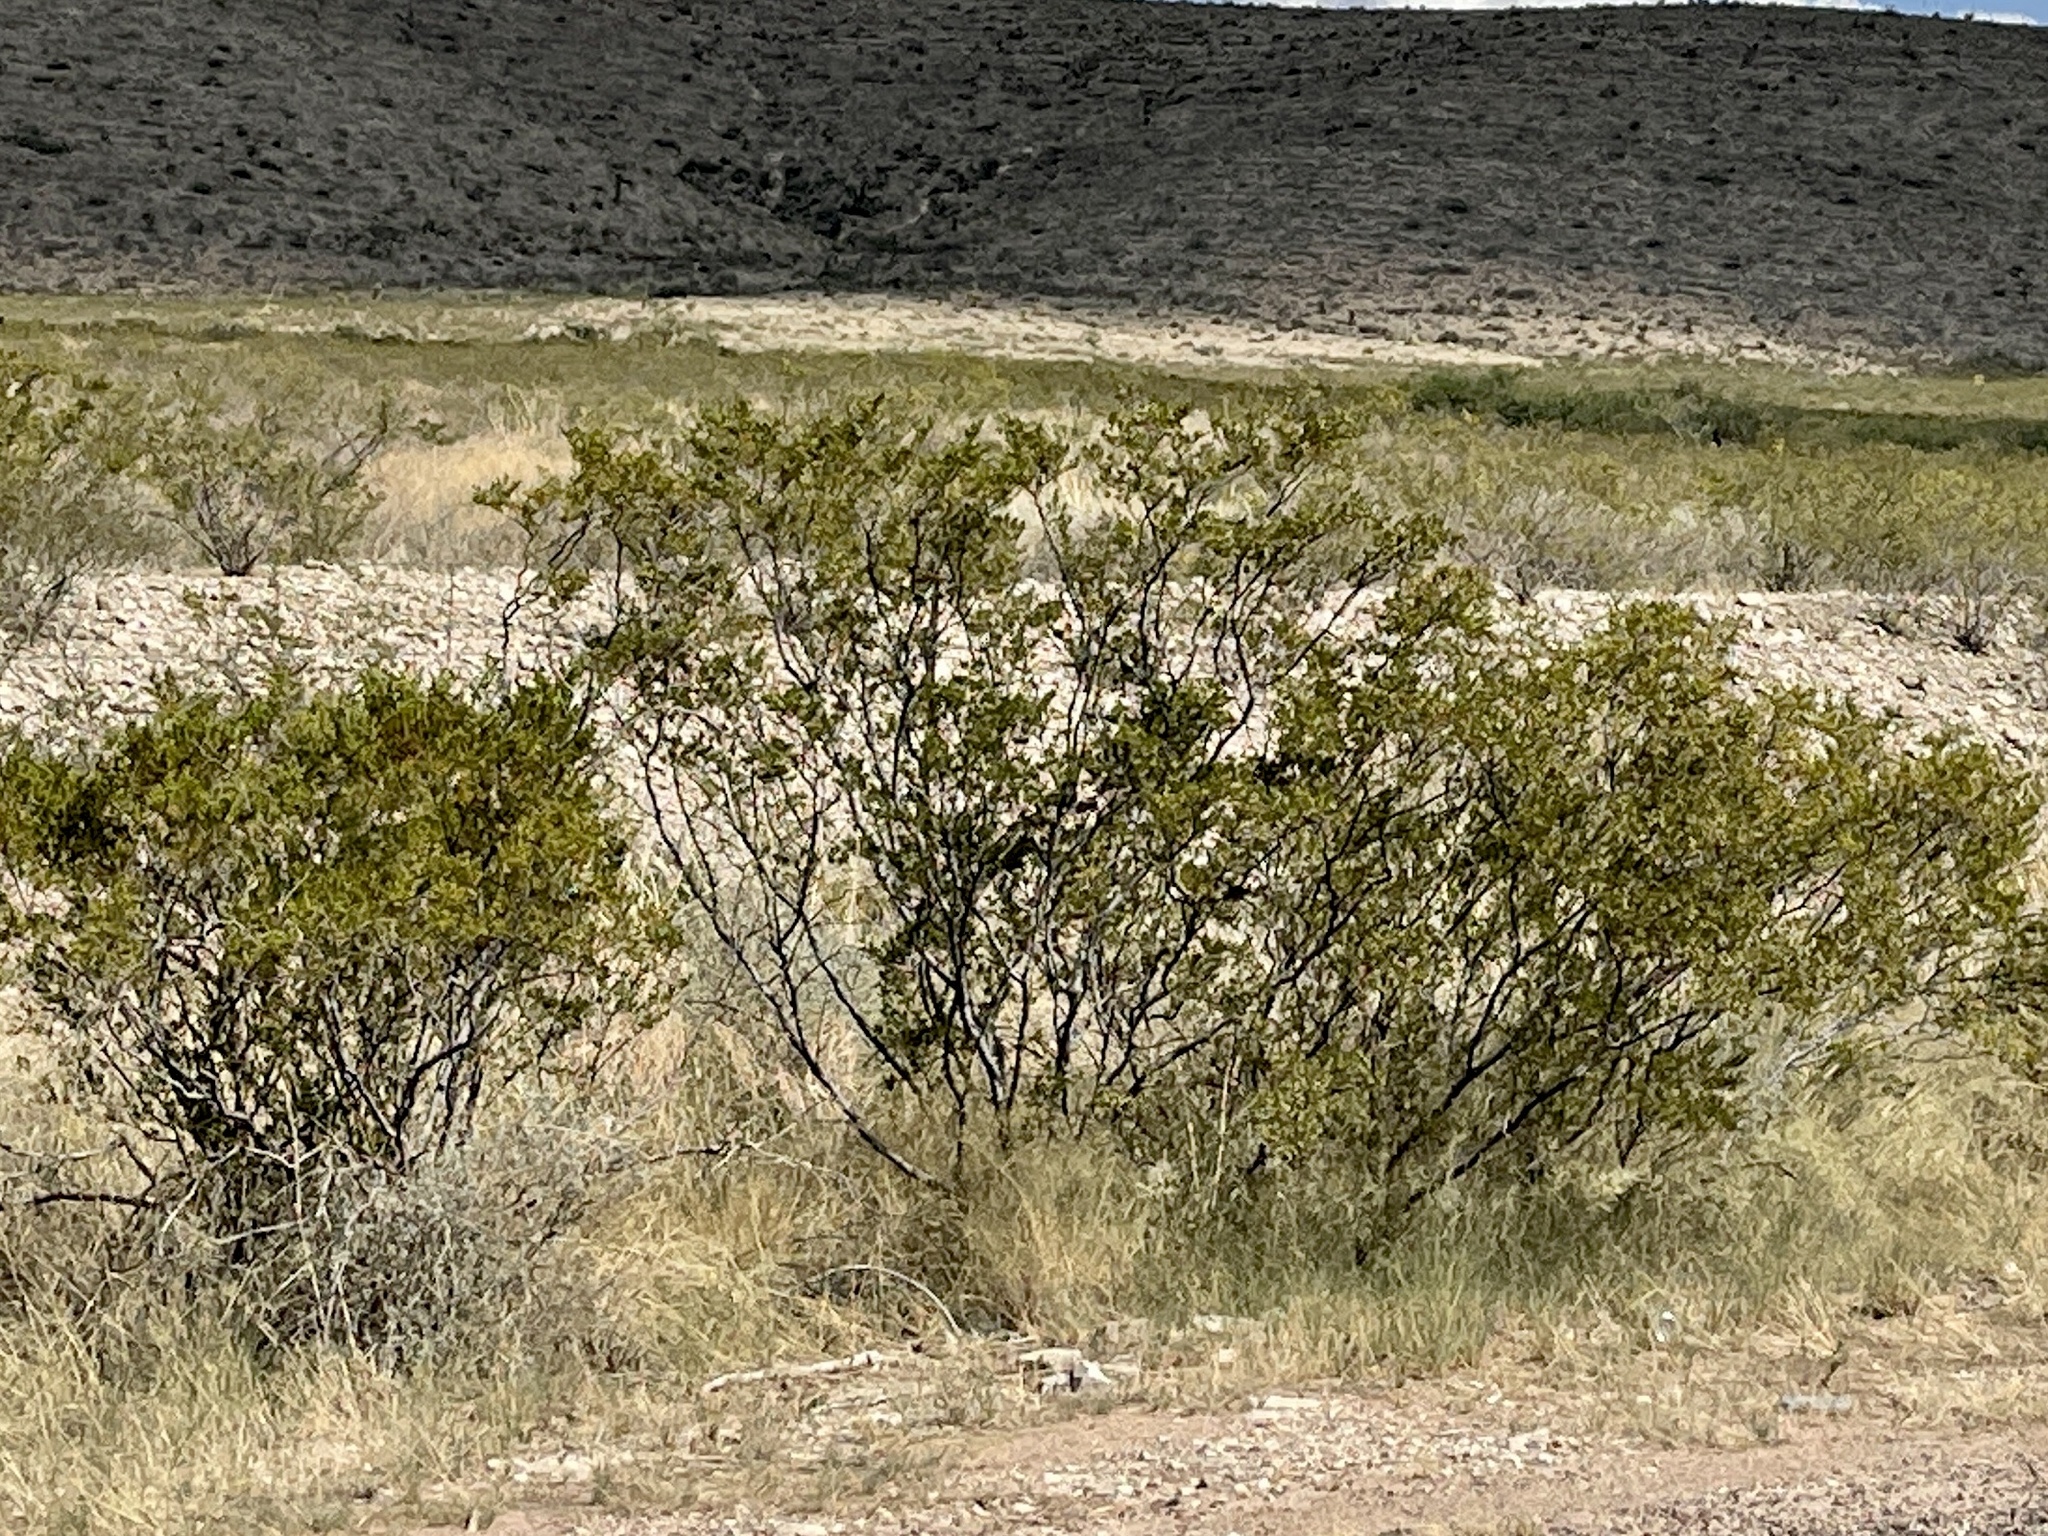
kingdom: Plantae
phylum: Tracheophyta
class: Magnoliopsida
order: Zygophyllales
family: Zygophyllaceae
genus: Larrea
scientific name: Larrea tridentata
